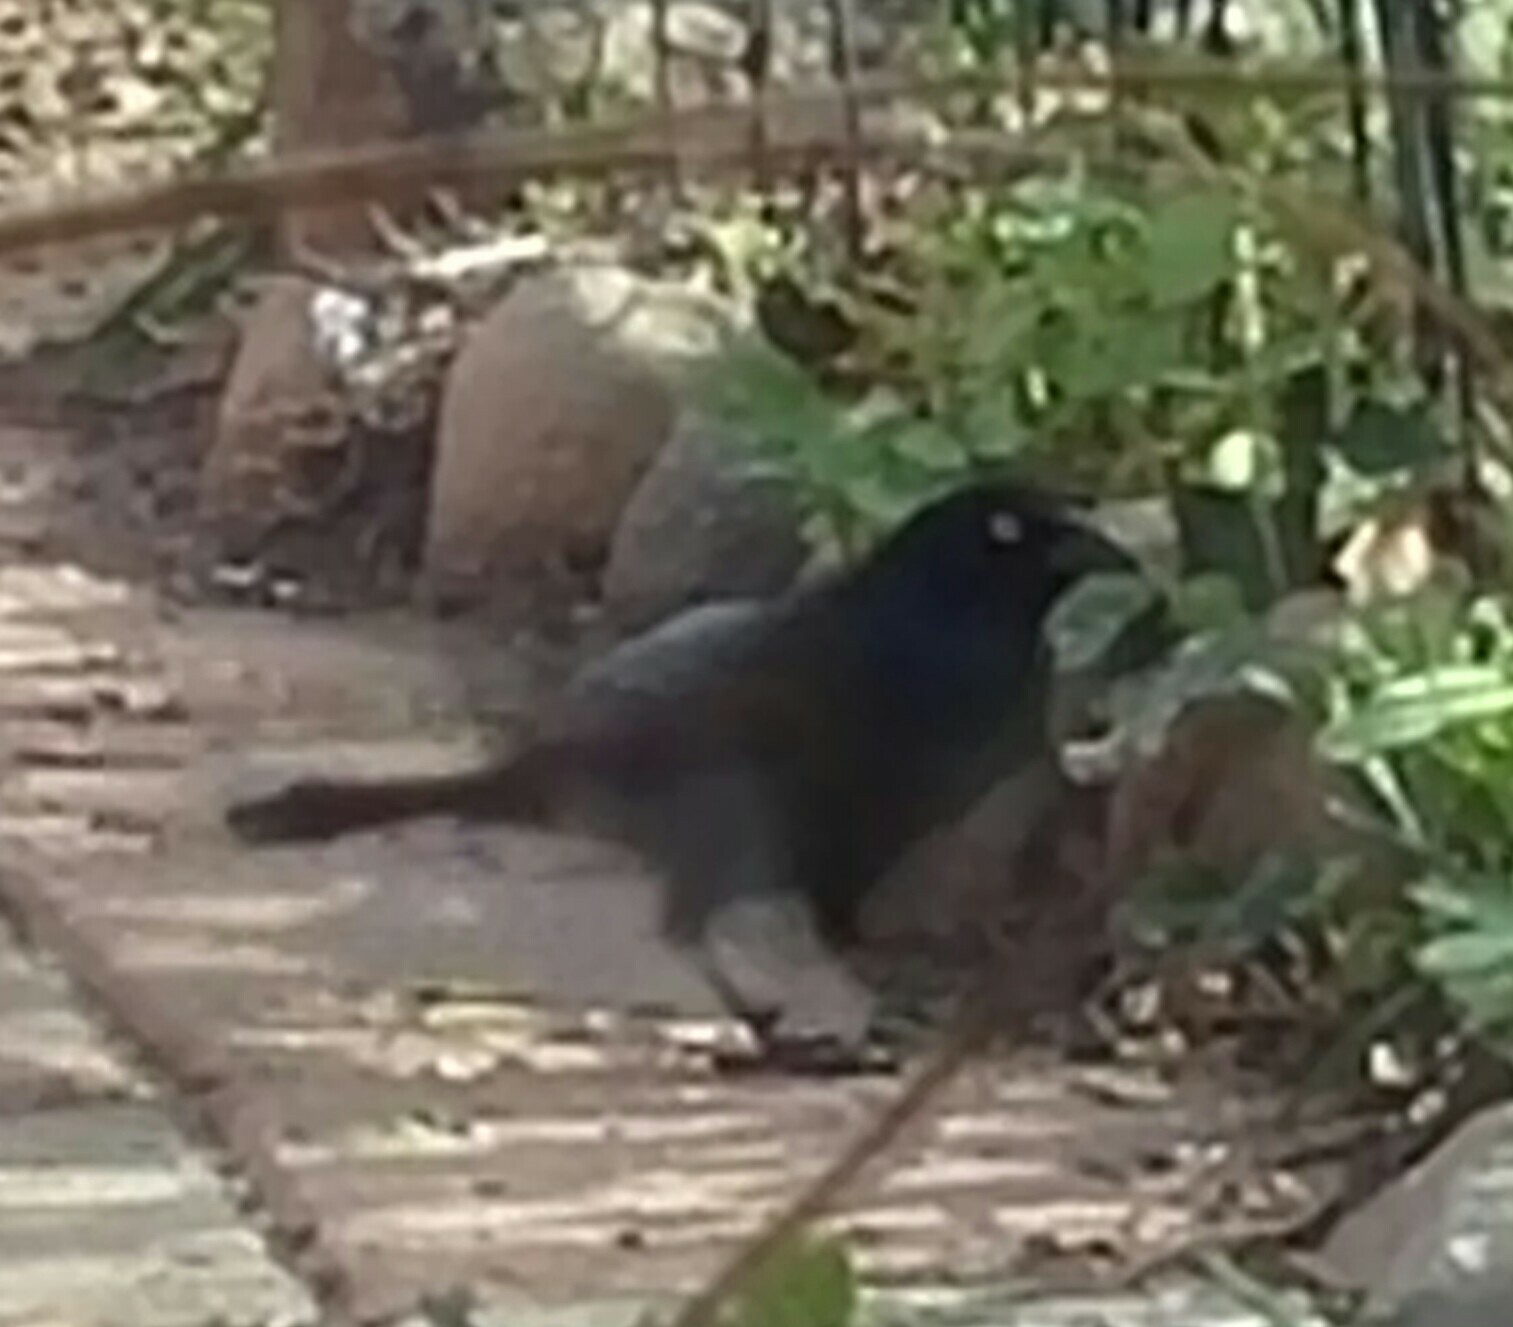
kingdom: Animalia
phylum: Chordata
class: Aves
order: Passeriformes
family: Icteridae
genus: Quiscalus
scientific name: Quiscalus quiscula
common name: Common grackle
